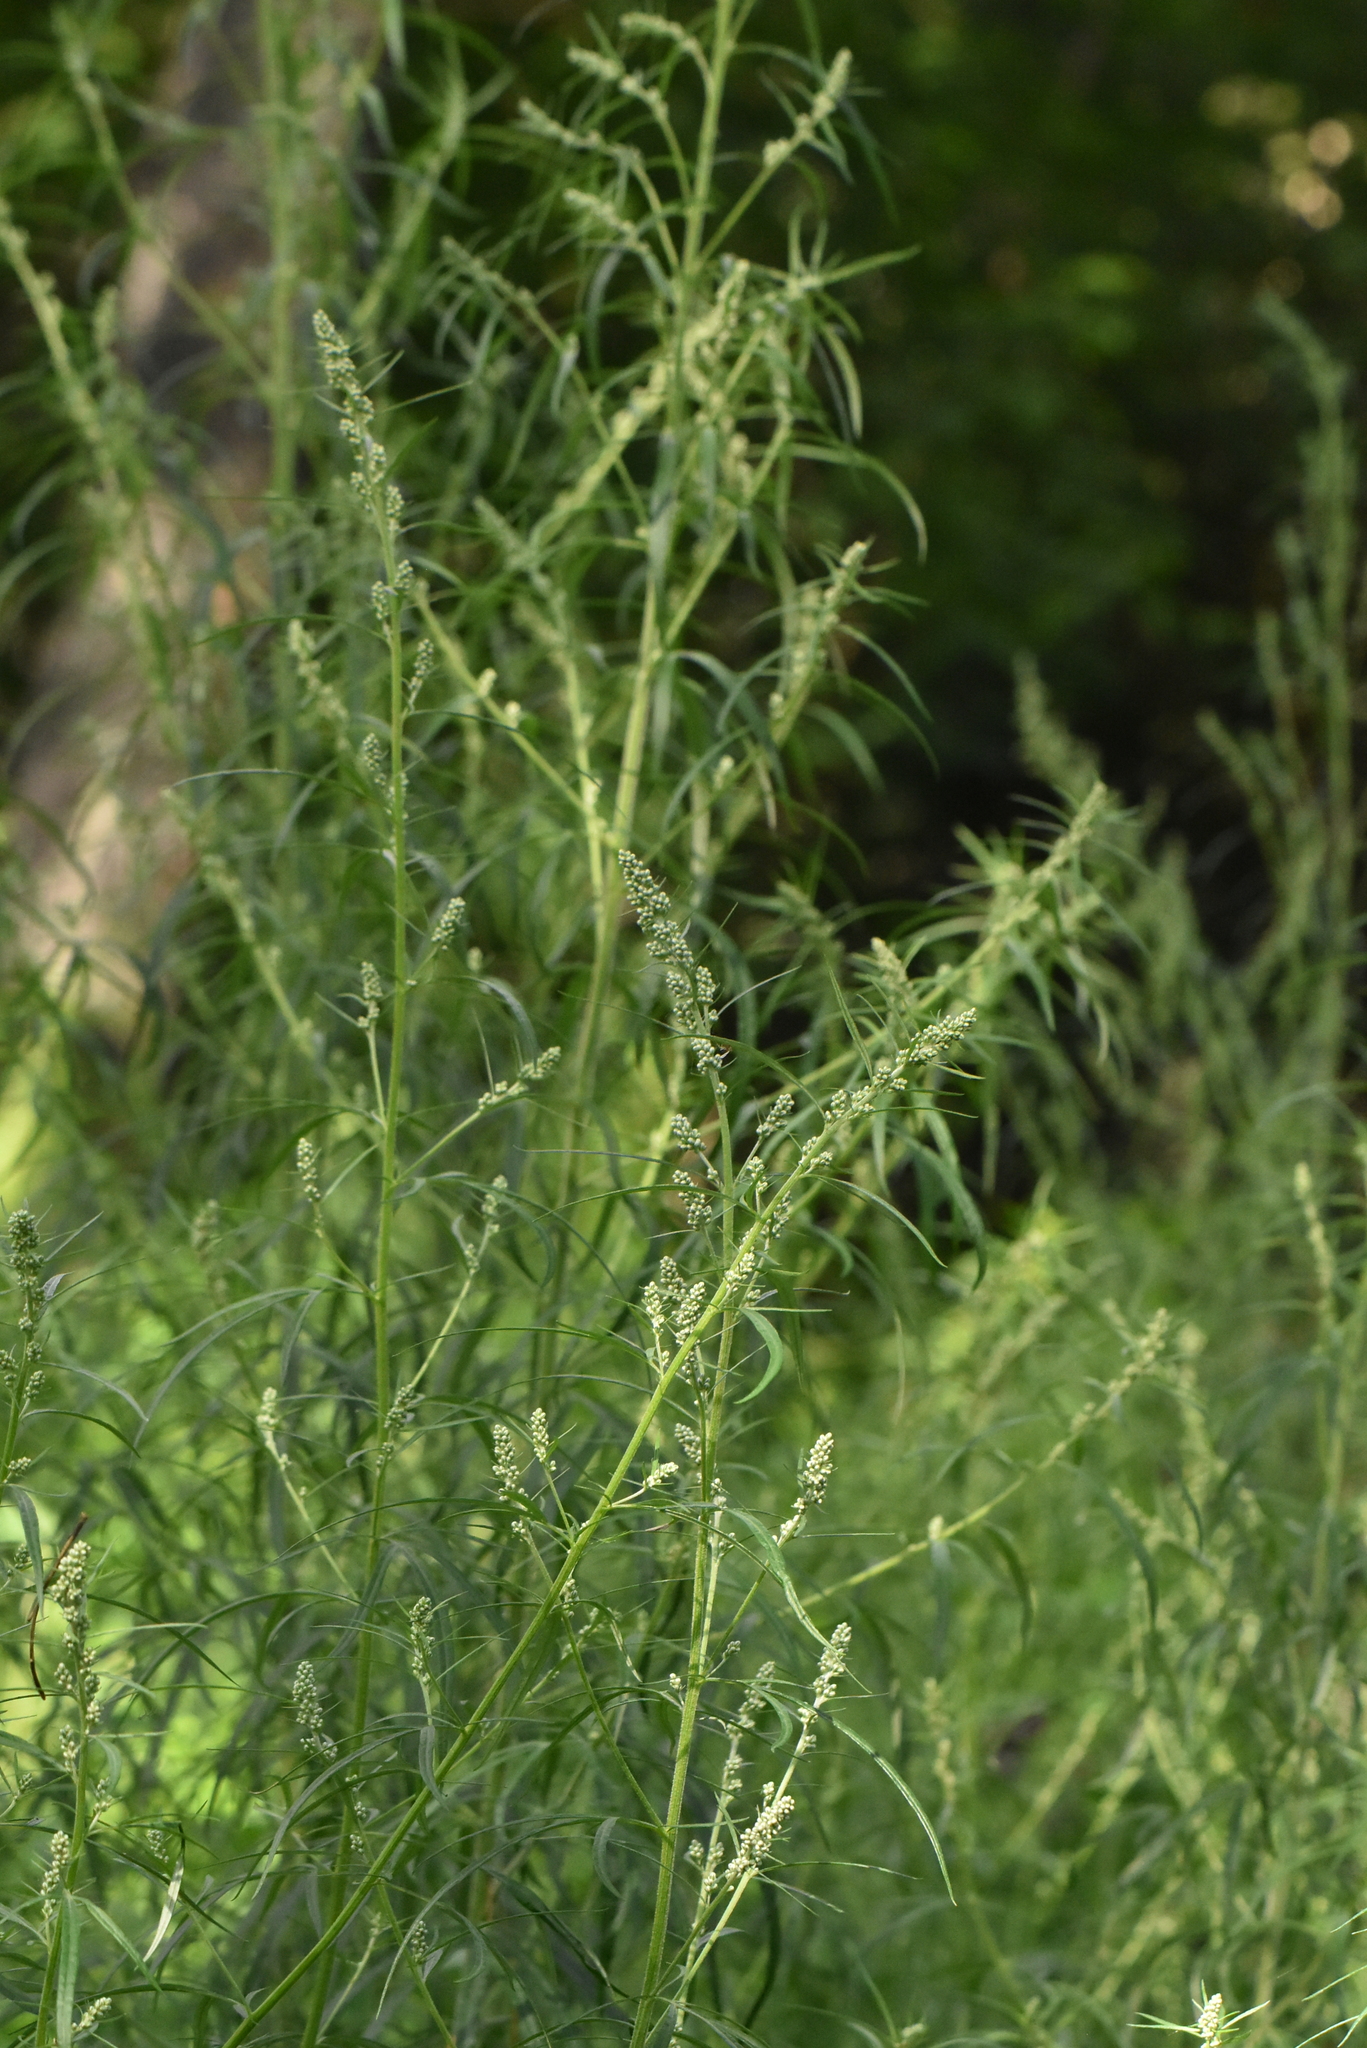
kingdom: Plantae
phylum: Tracheophyta
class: Magnoliopsida
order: Asterales
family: Asteraceae
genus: Artemisia
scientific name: Artemisia vulgaris
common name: Mugwort
